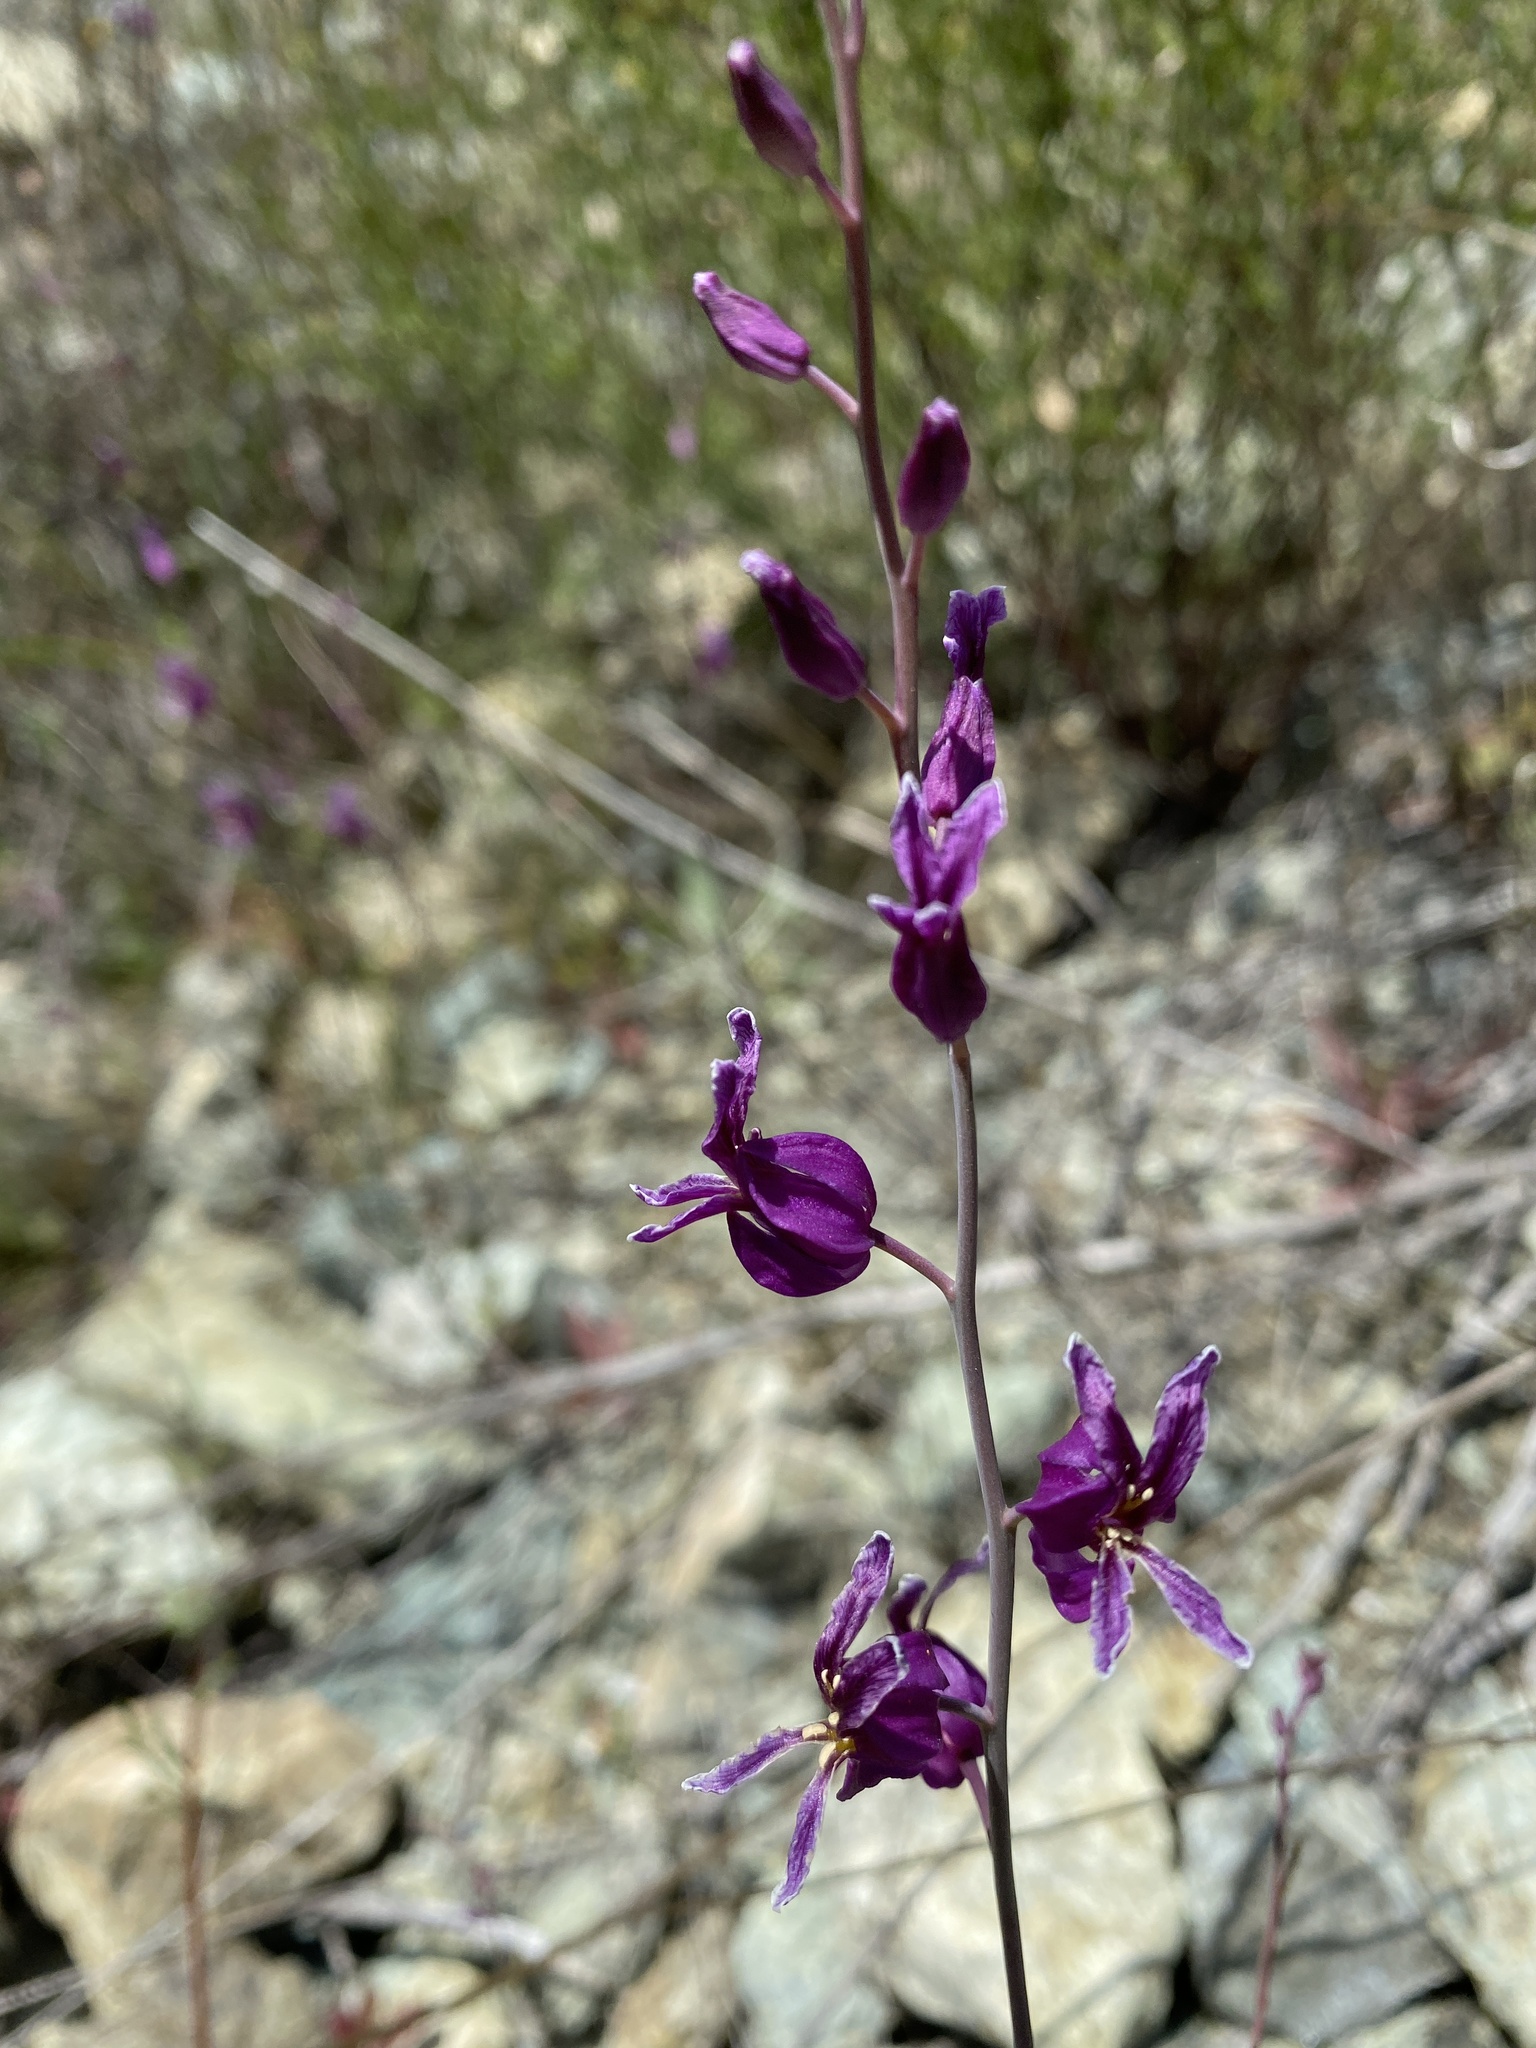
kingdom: Plantae
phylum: Tracheophyta
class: Magnoliopsida
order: Brassicales
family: Brassicaceae
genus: Streptanthus
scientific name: Streptanthus glandulosus
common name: Jewel-flower
